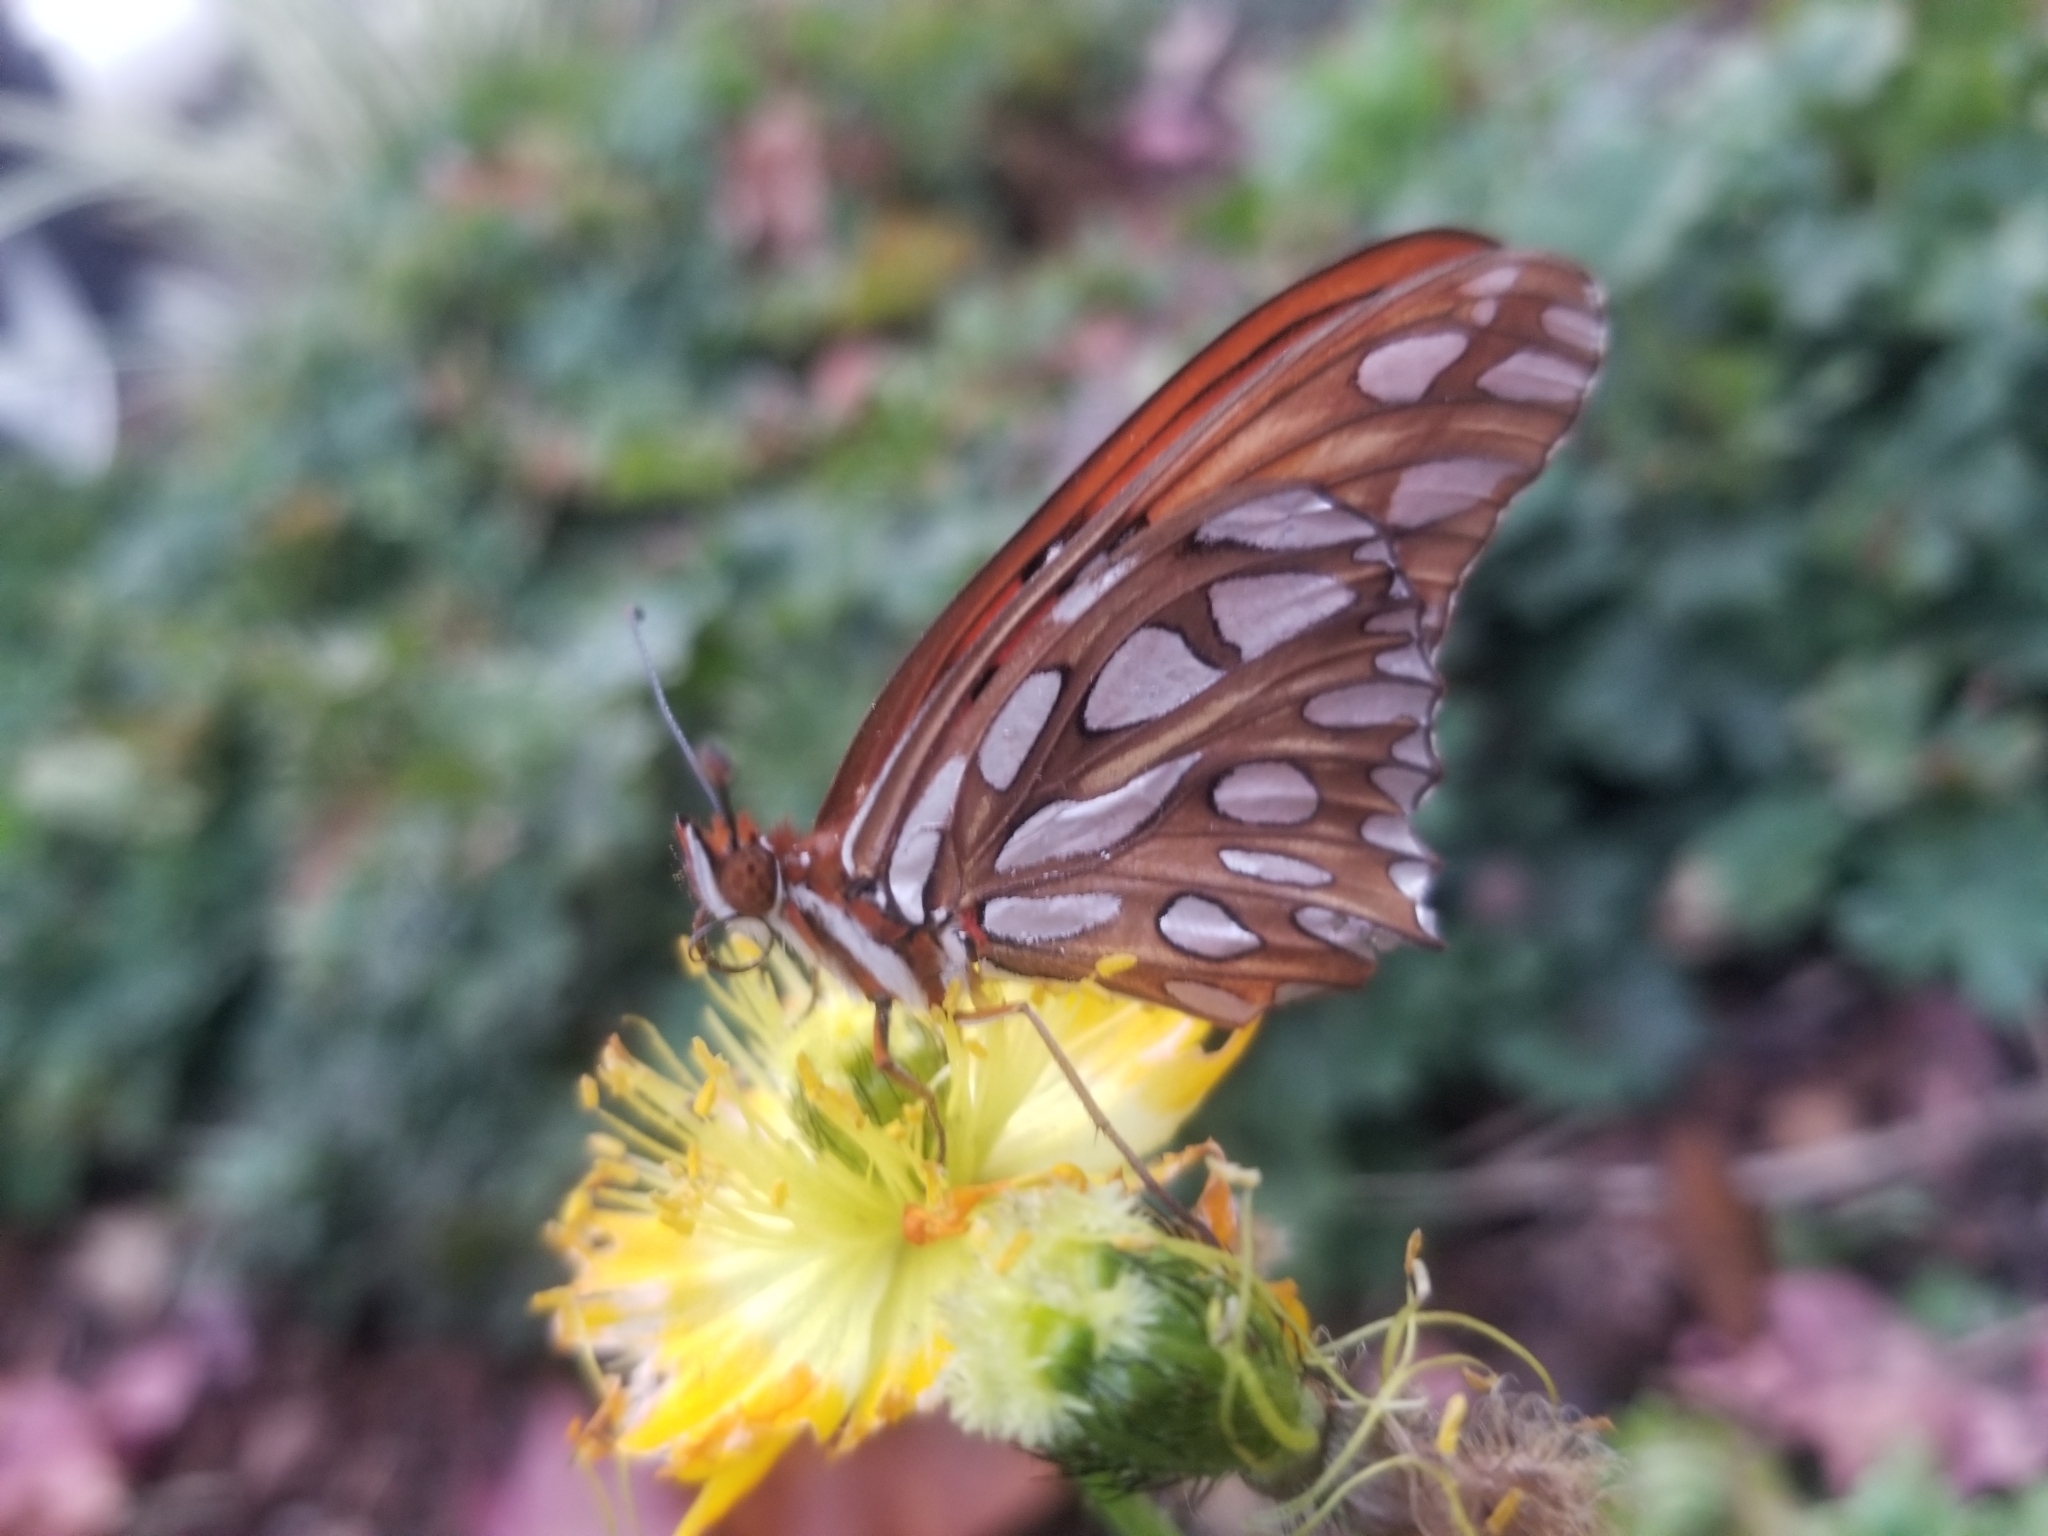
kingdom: Animalia
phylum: Arthropoda
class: Insecta
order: Lepidoptera
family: Nymphalidae
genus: Dione
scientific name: Dione vanillae
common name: Gulf fritillary
